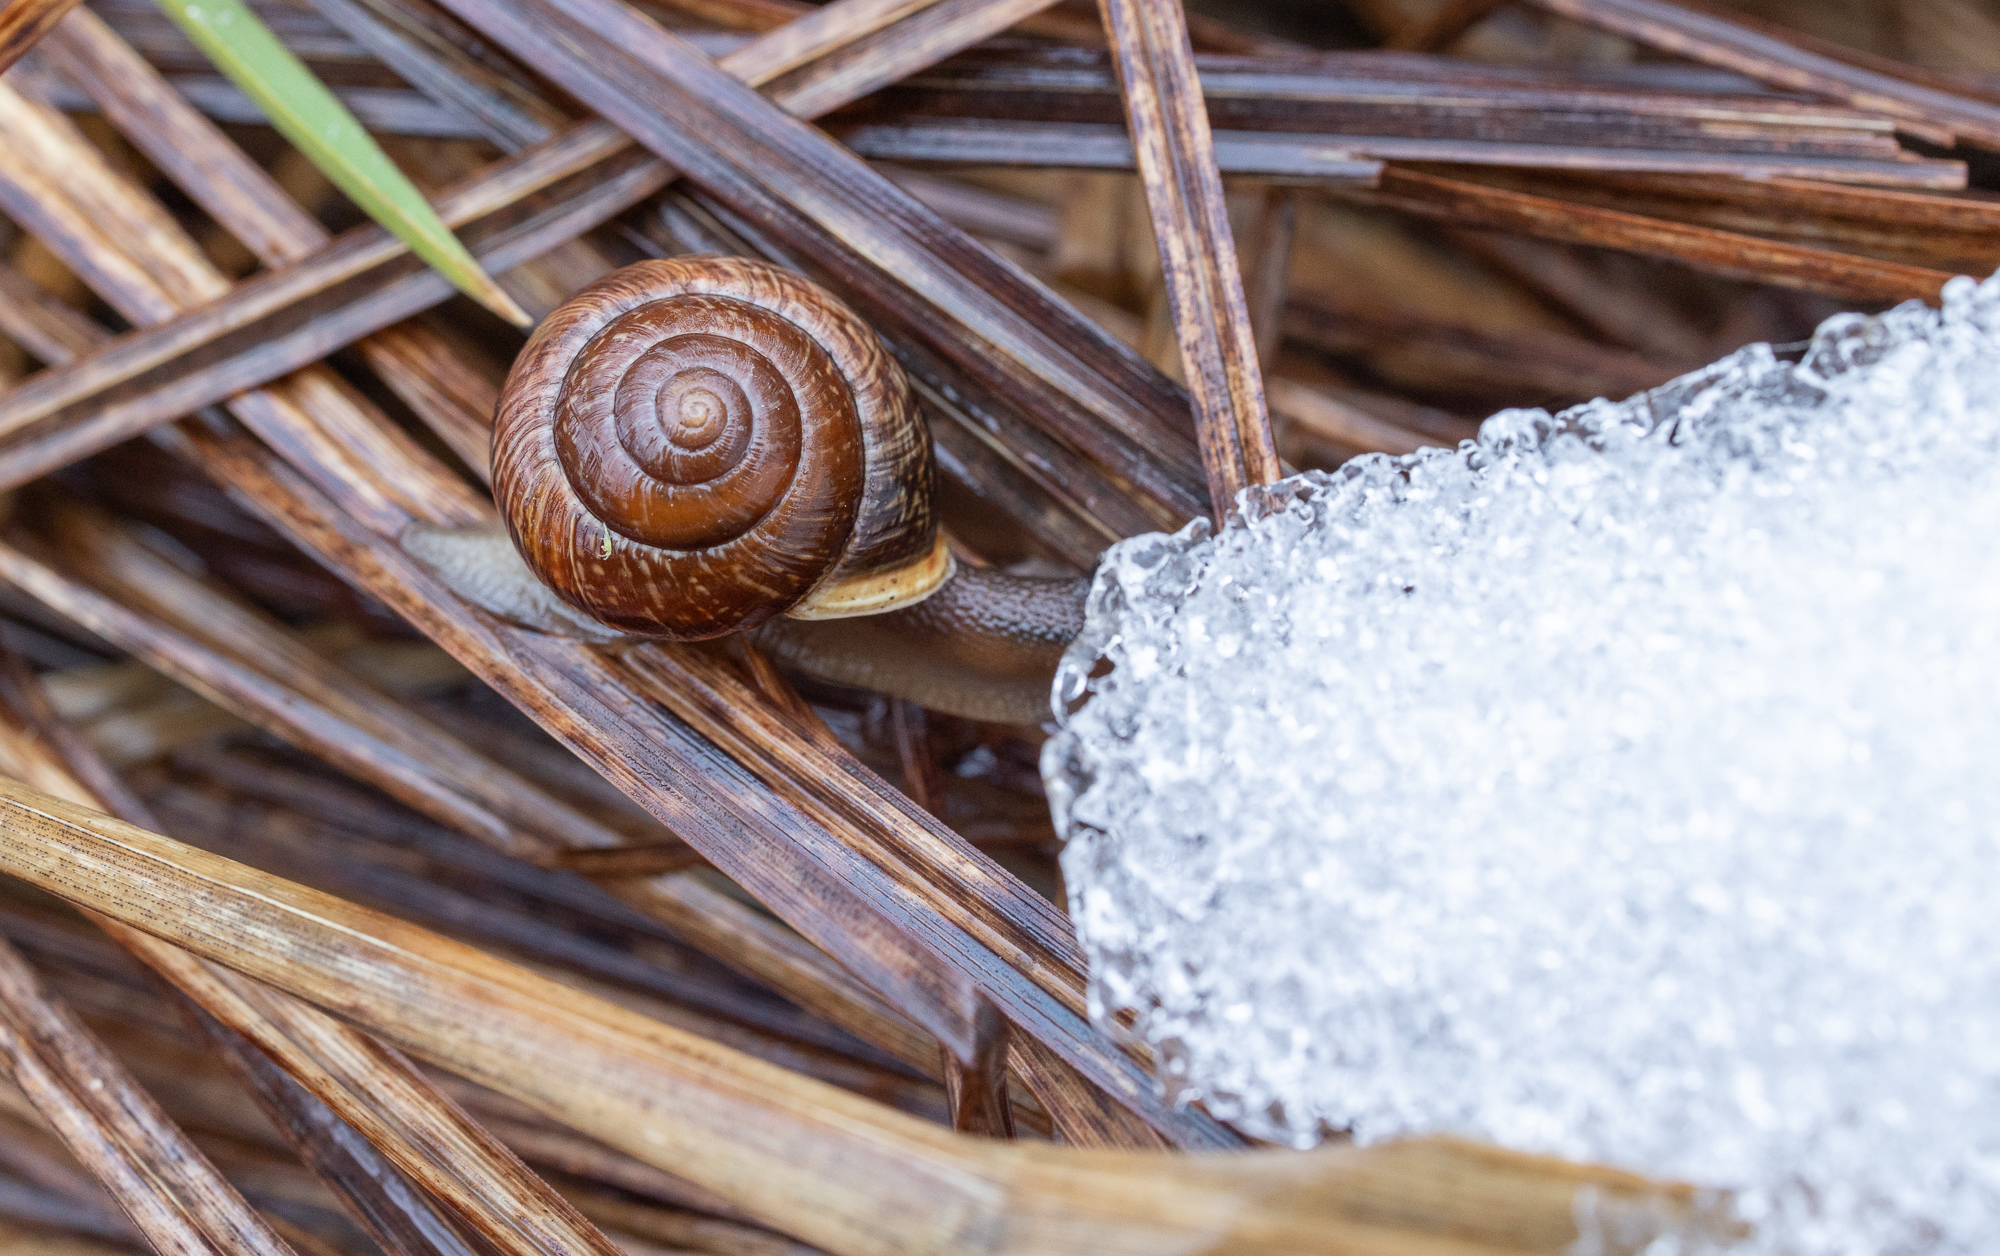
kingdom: Animalia
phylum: Mollusca
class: Gastropoda
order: Stylommatophora
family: Helicidae
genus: Arianta
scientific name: Arianta arbustorum
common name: Copse snail
